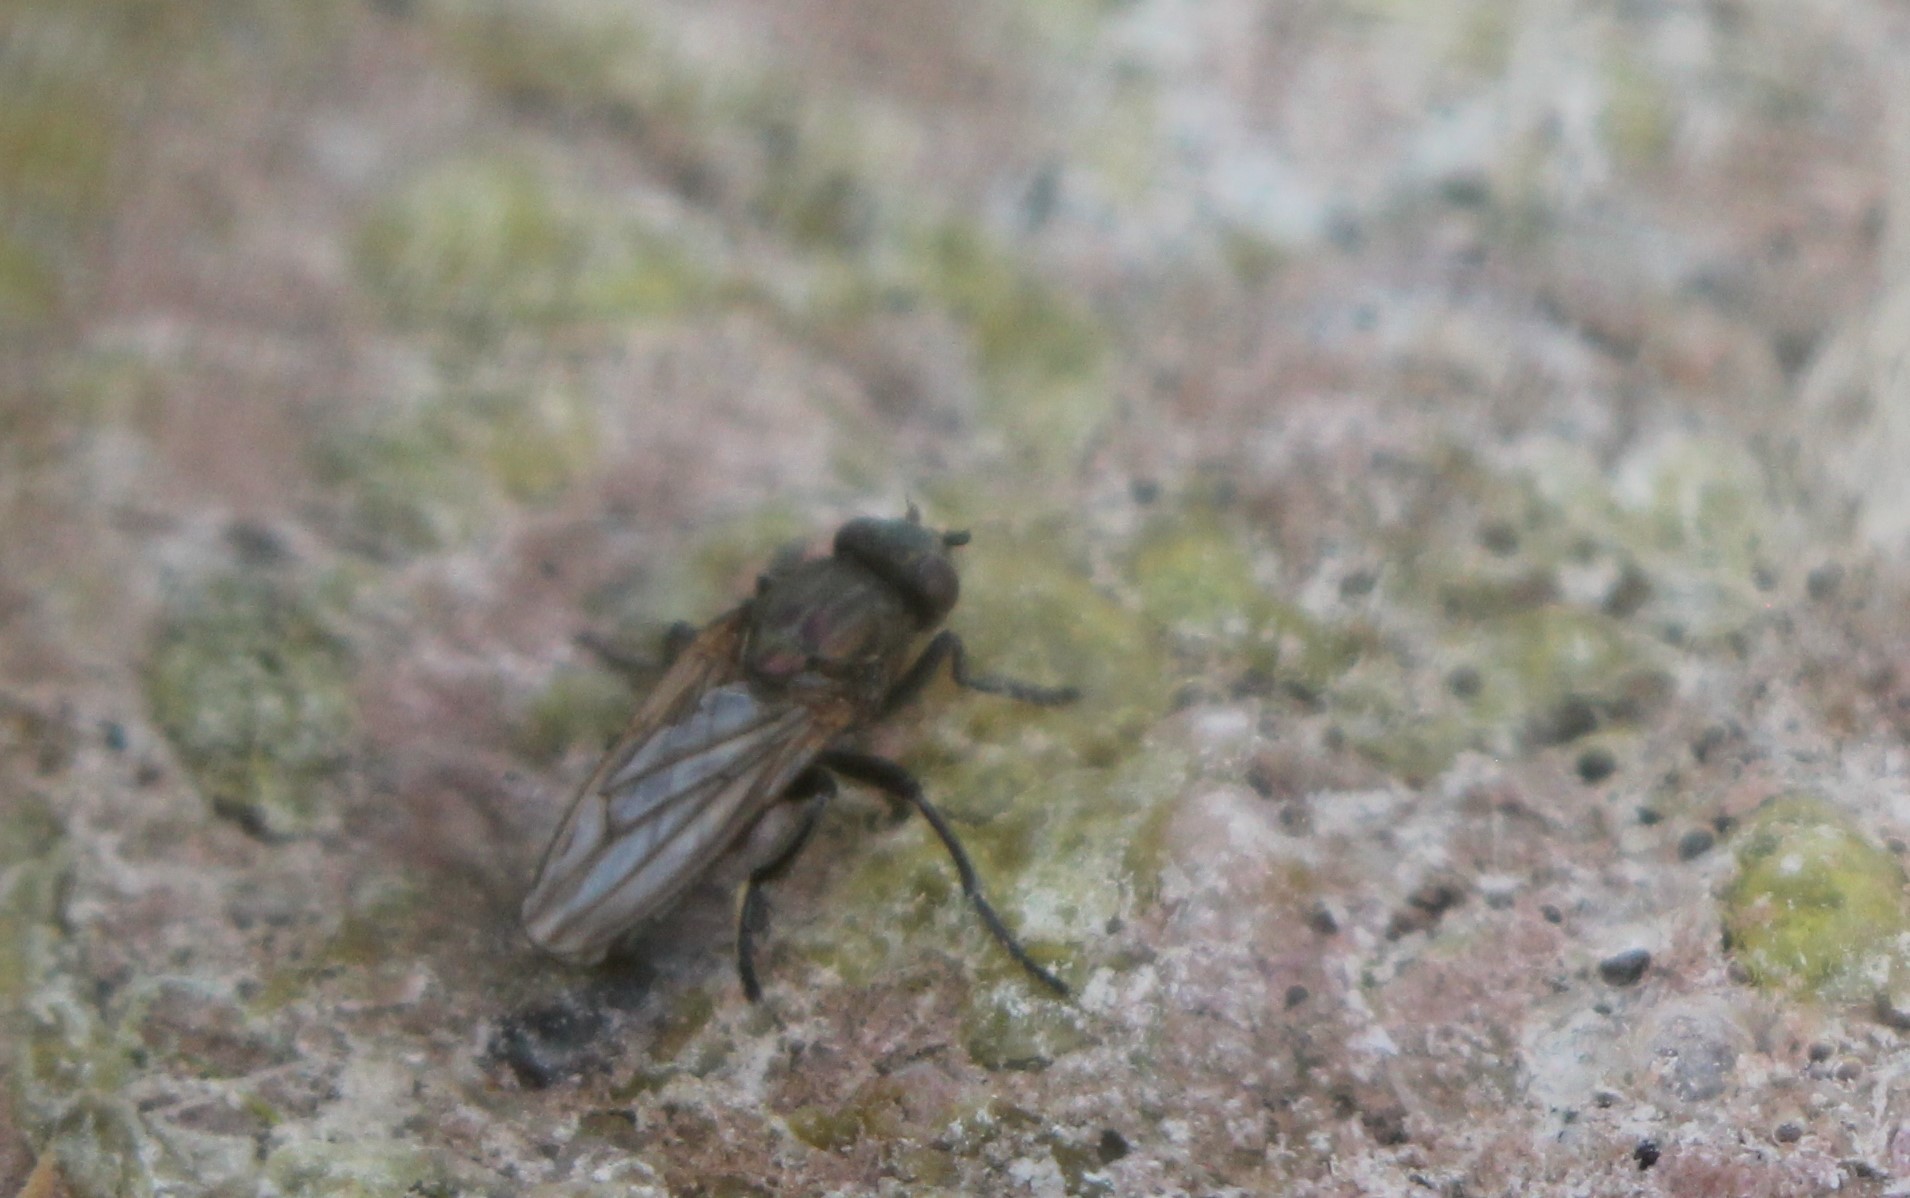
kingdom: Animalia
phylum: Arthropoda
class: Insecta
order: Diptera
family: Ephydridae
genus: Cirrula
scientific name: Cirrula gigantea
